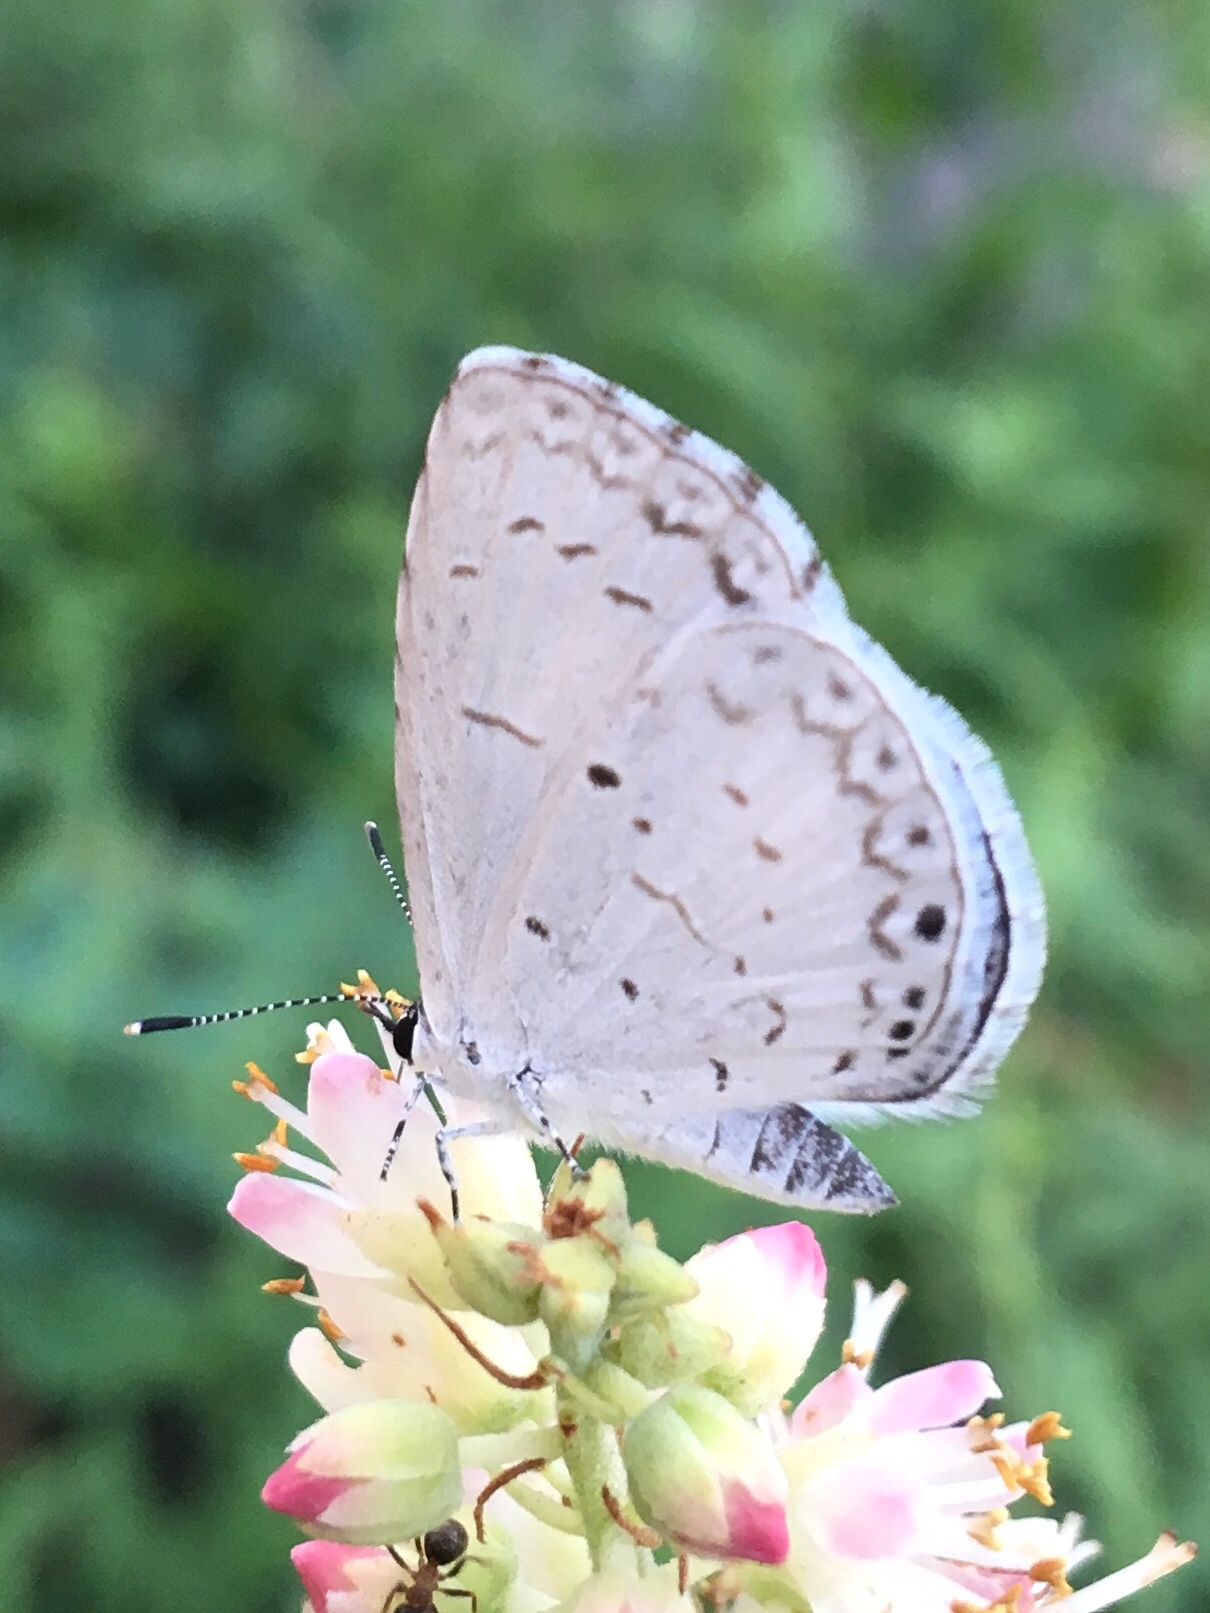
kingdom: Animalia
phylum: Arthropoda
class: Insecta
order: Lepidoptera
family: Lycaenidae
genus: Cyaniris
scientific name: Cyaniris neglecta
